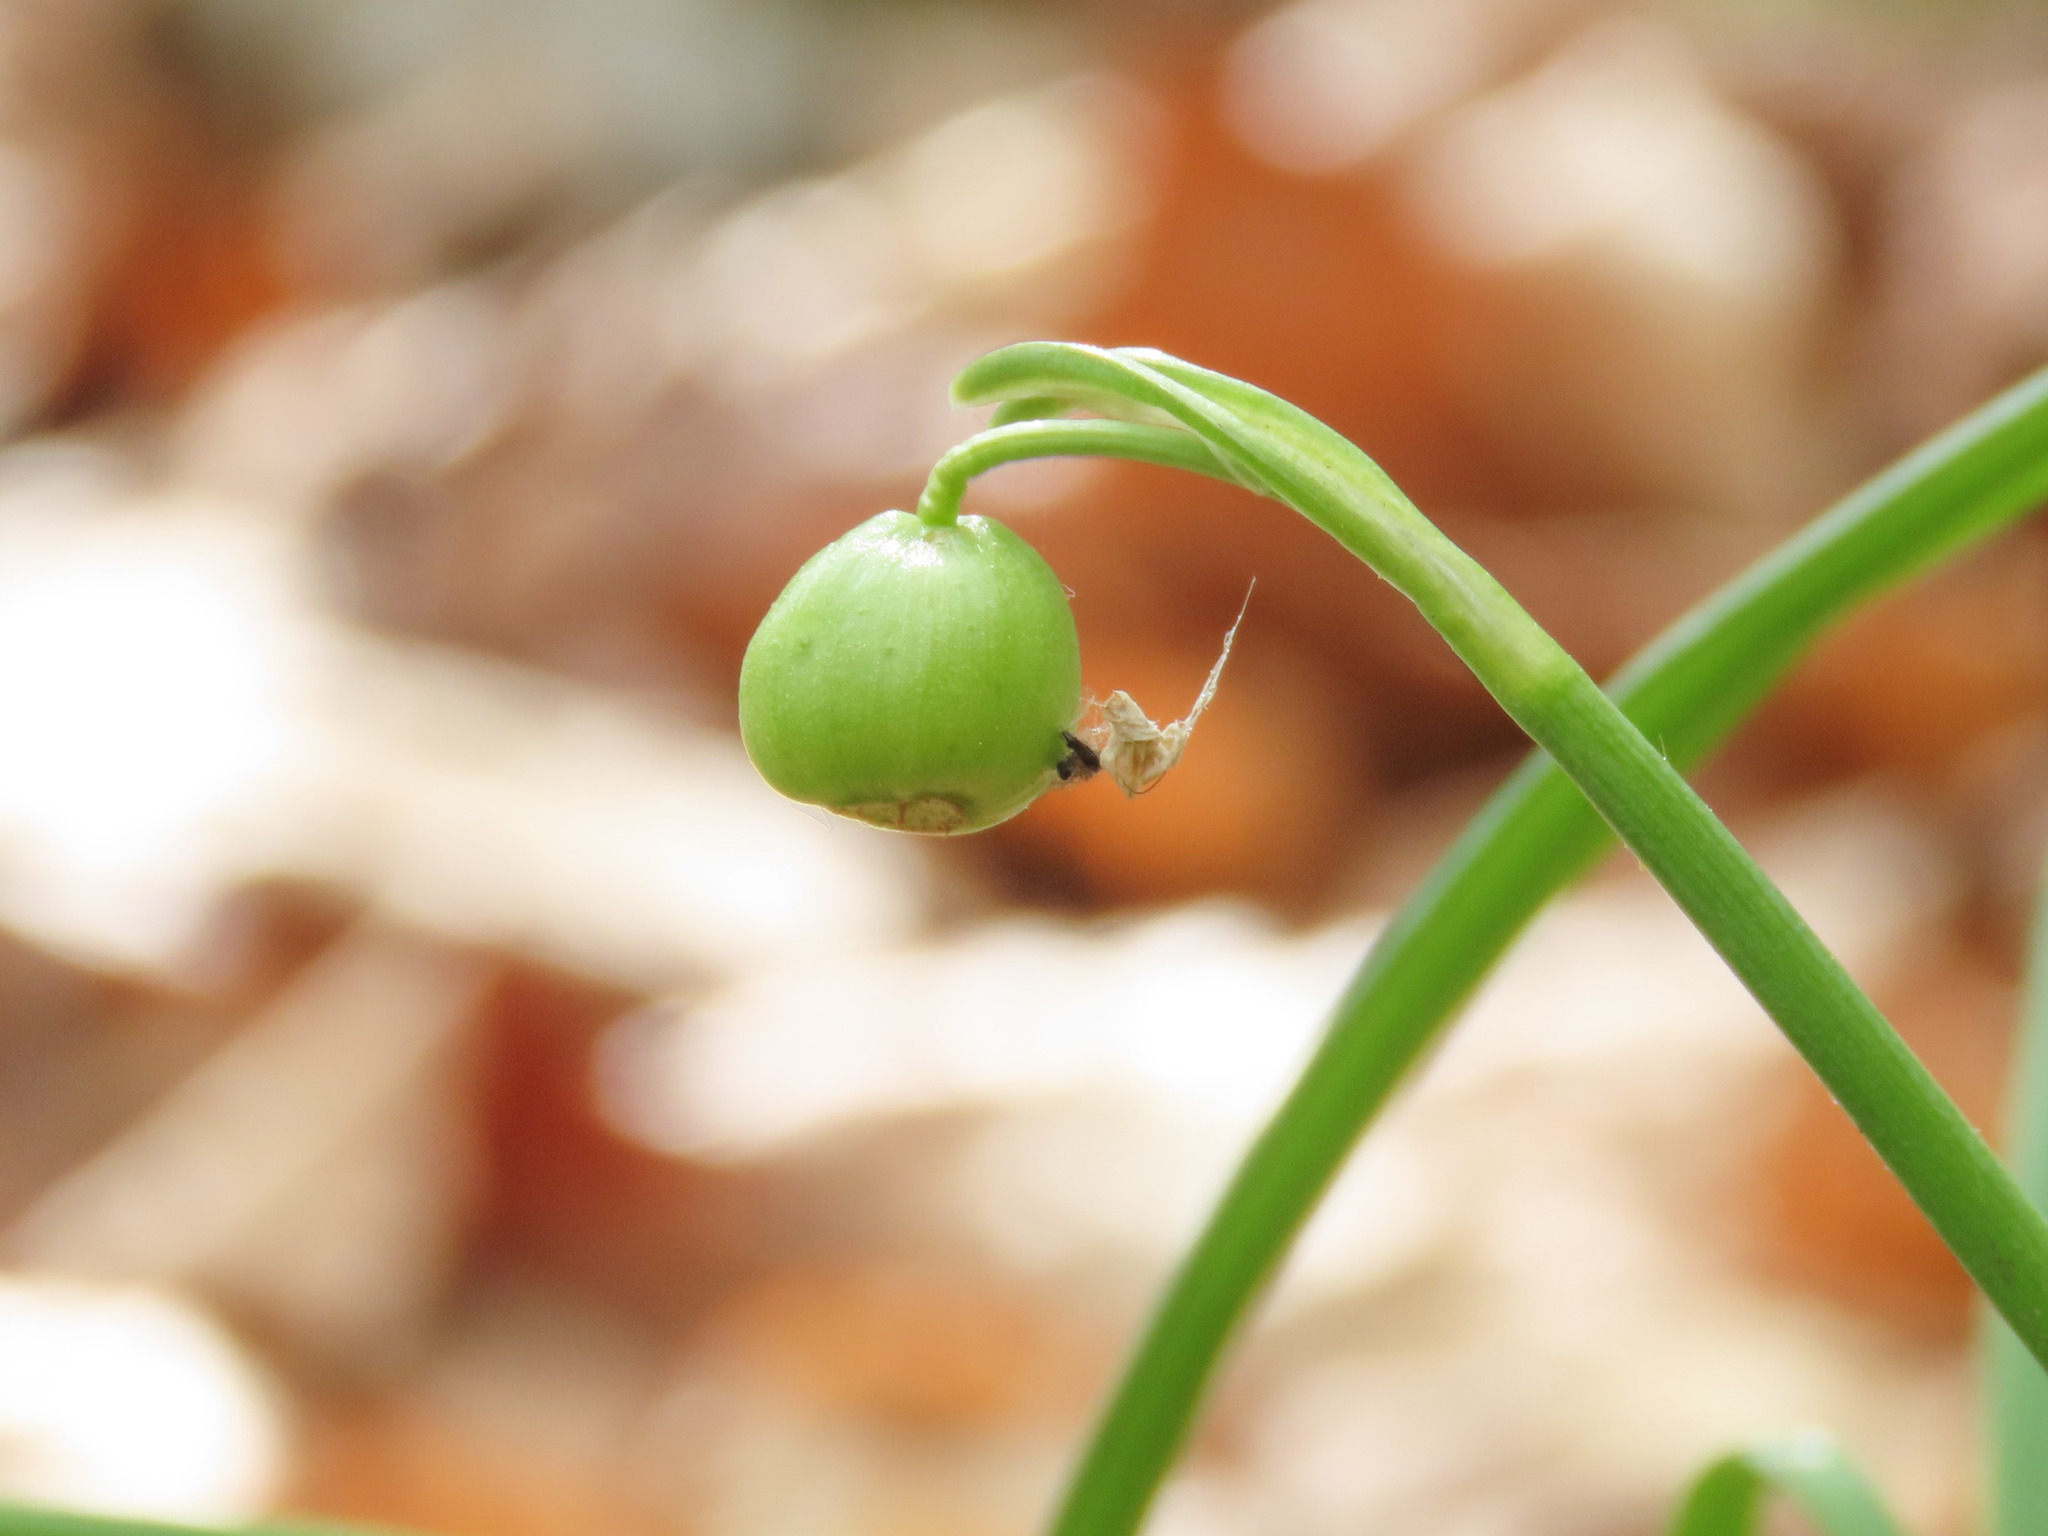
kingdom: Plantae
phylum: Tracheophyta
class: Liliopsida
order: Asparagales
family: Amaryllidaceae
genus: Galanthus
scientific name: Galanthus nivalis
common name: Snowdrop
